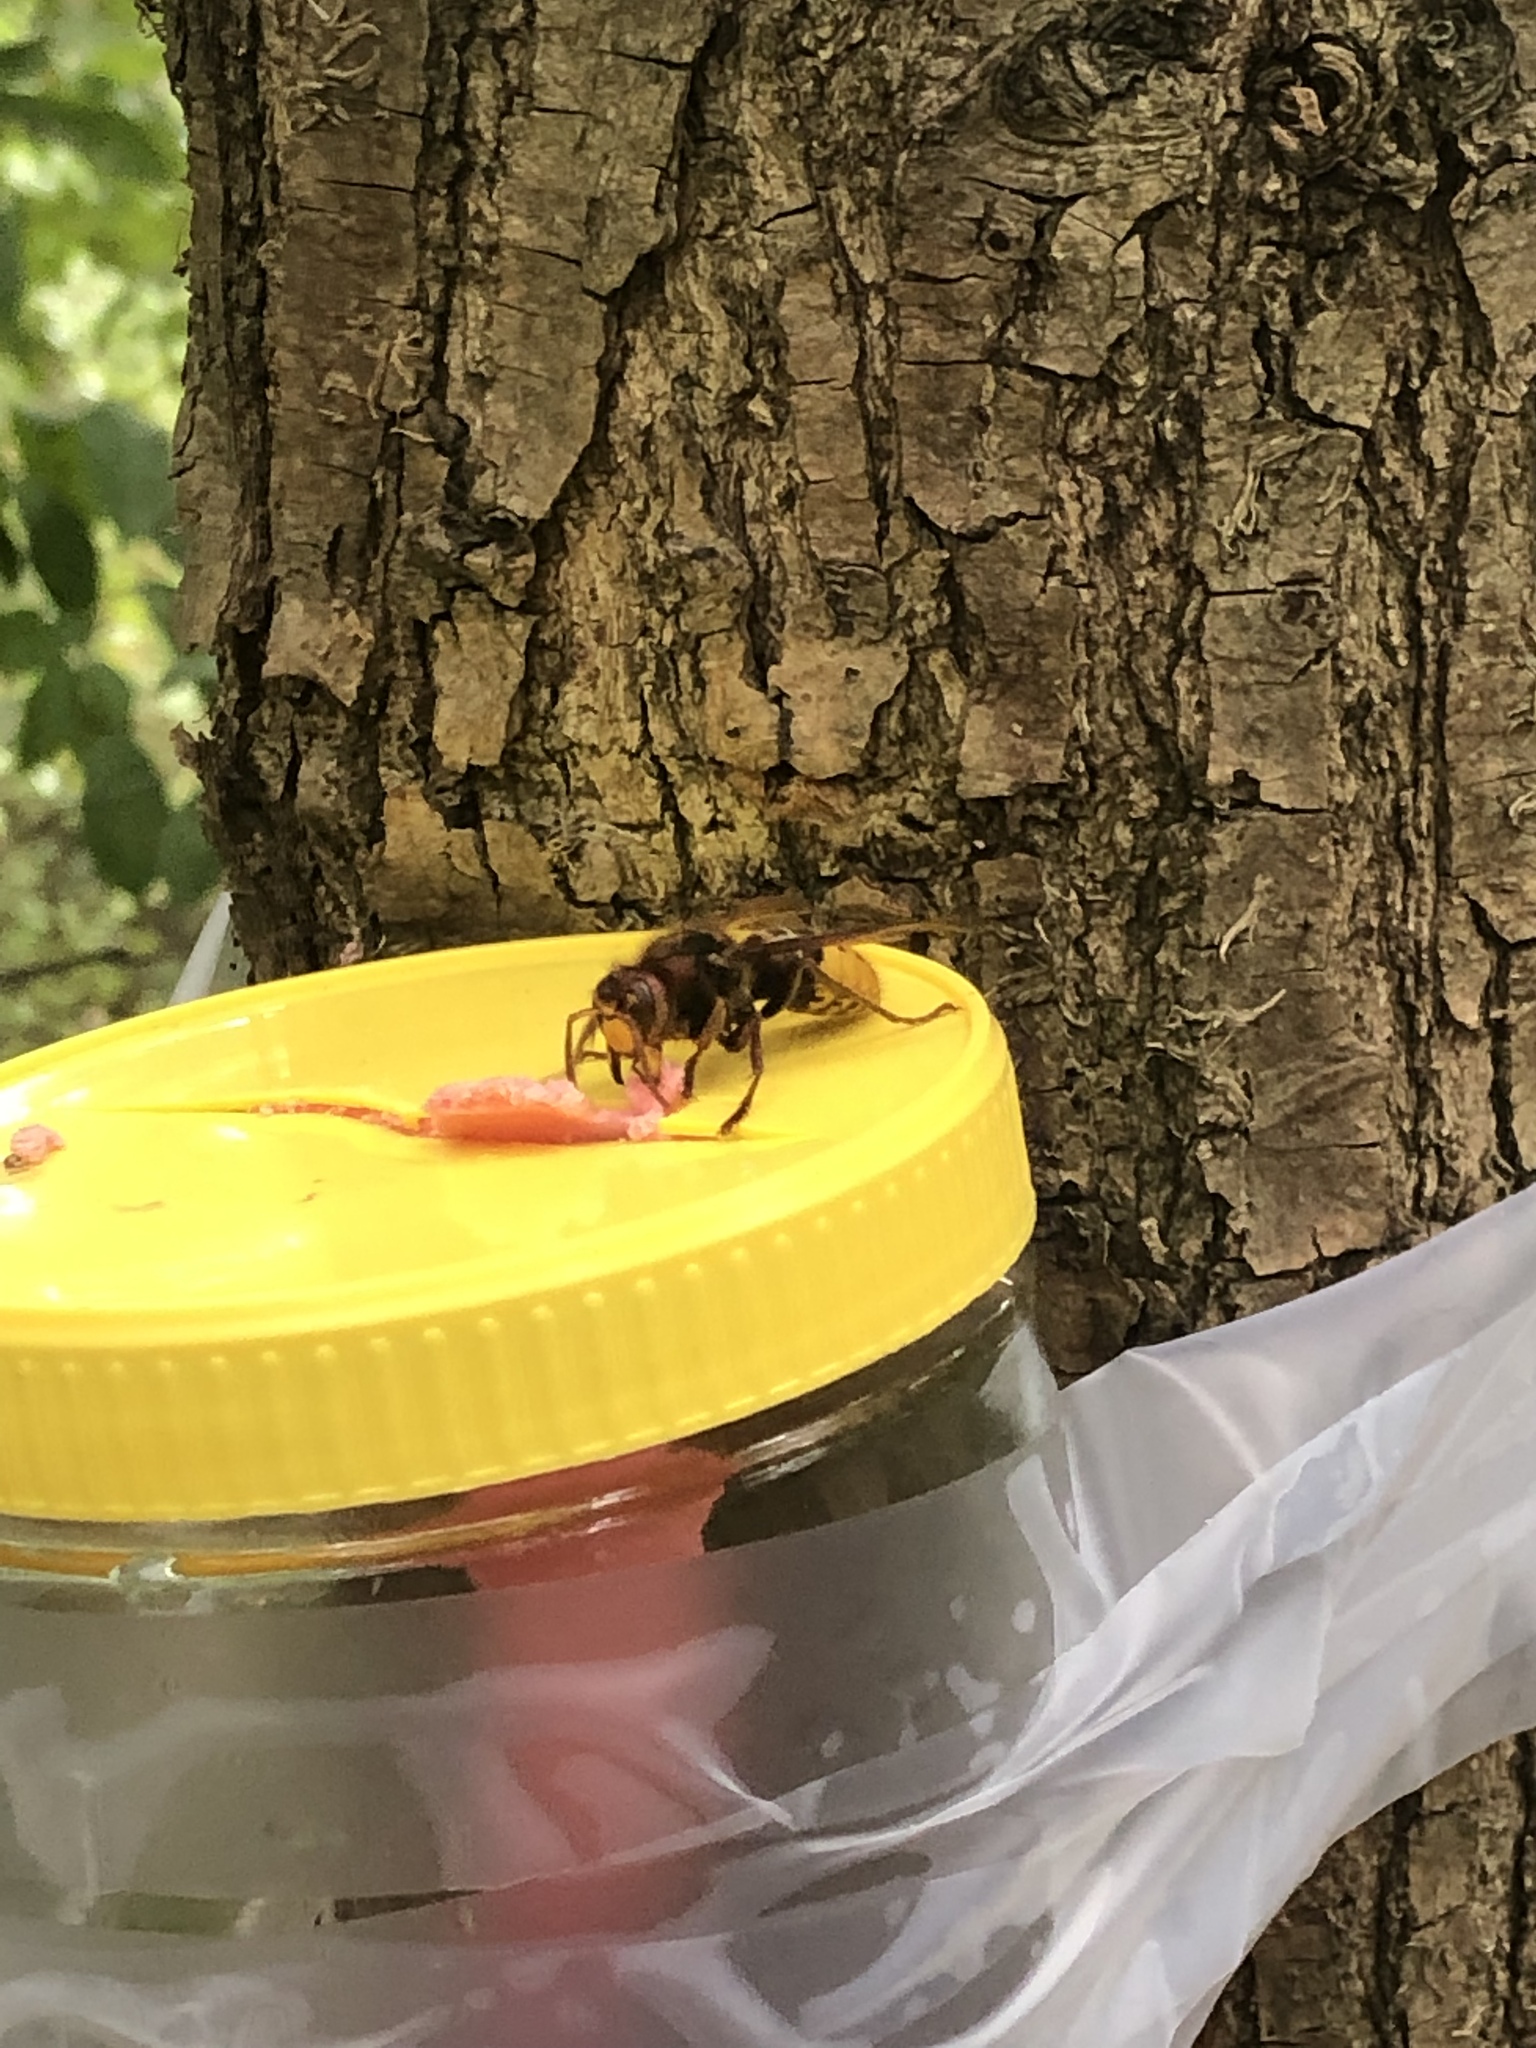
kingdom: Animalia
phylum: Arthropoda
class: Insecta
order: Hymenoptera
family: Vespidae
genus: Vespa
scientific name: Vespa crabro
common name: Hornet
